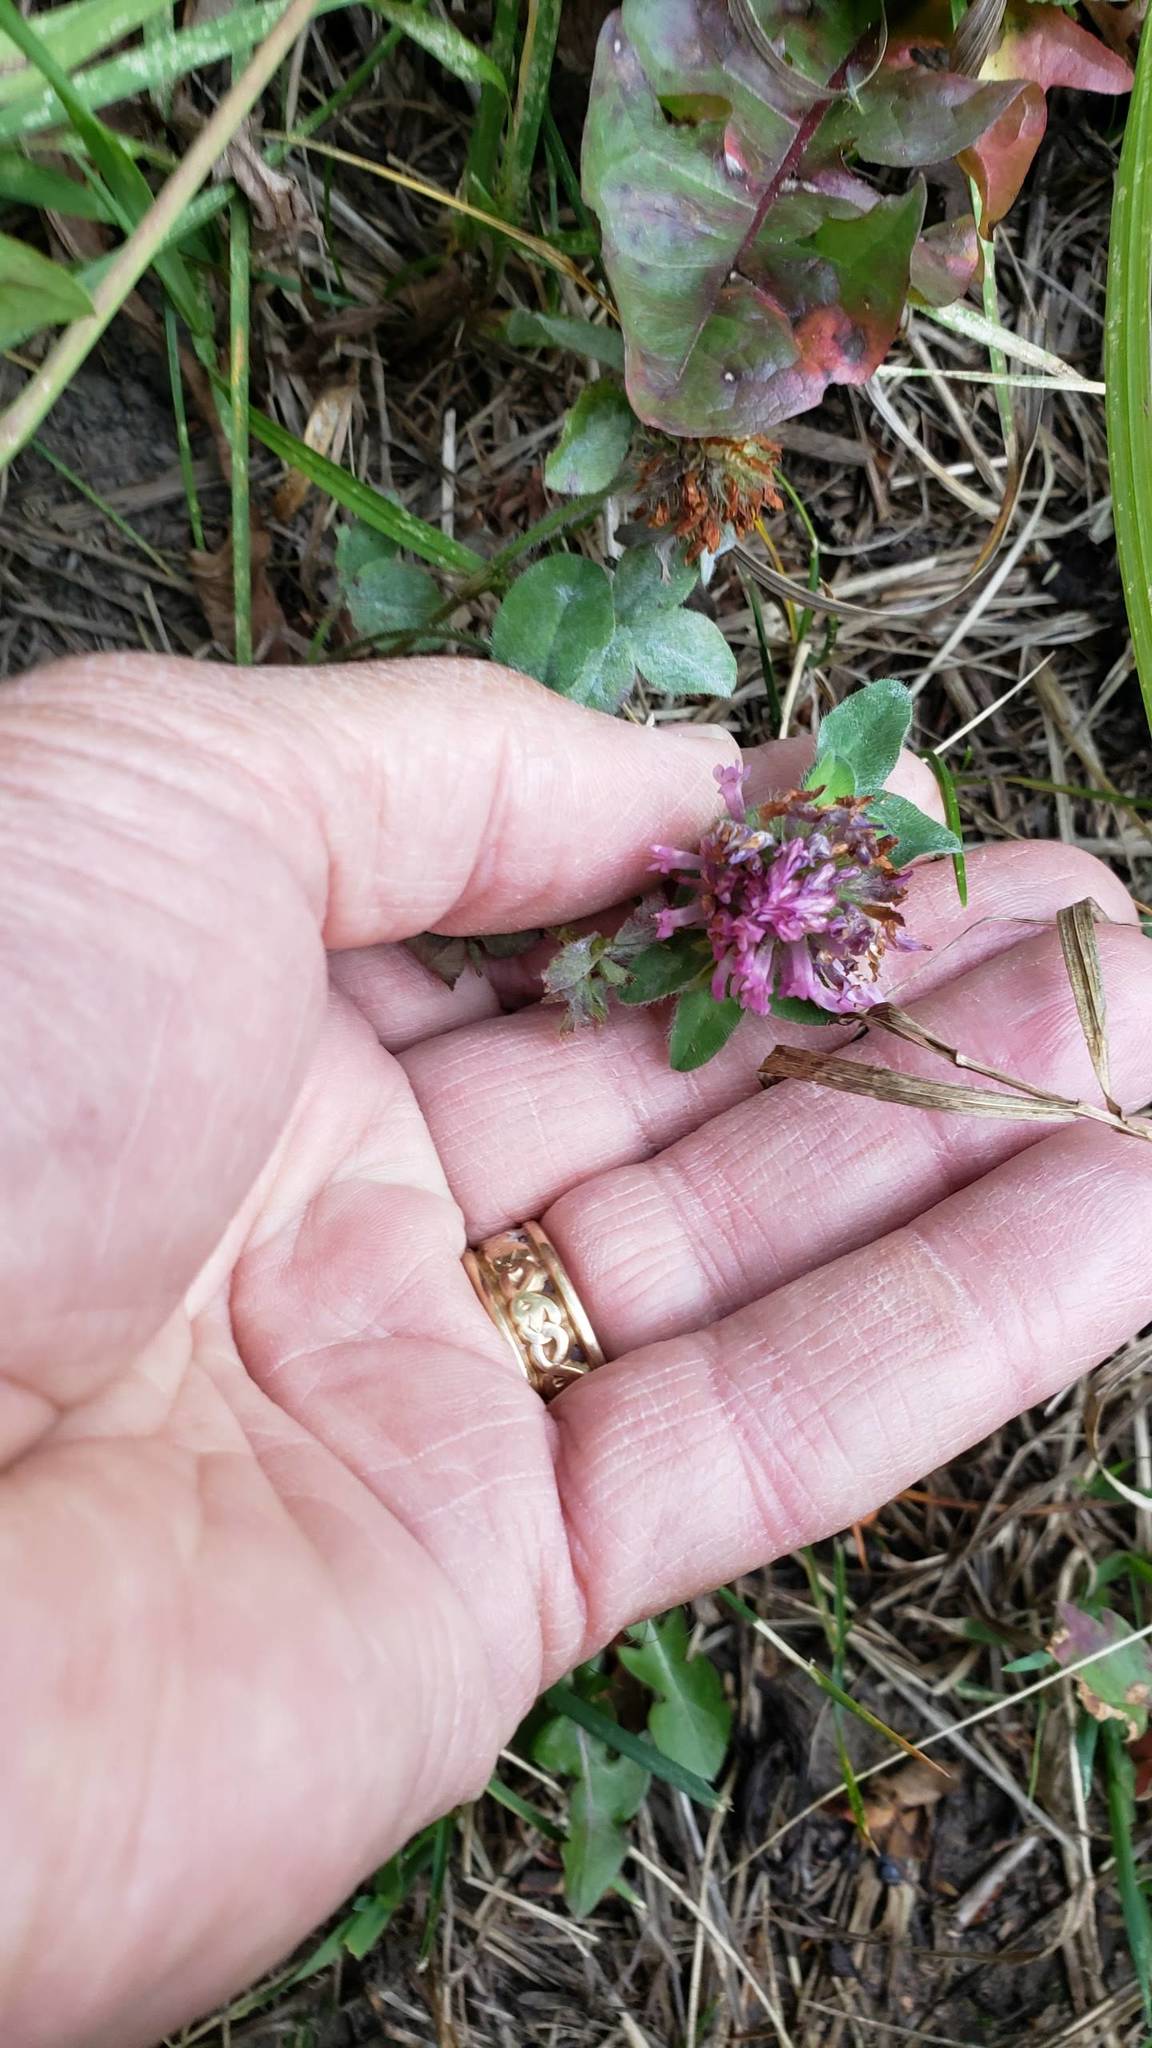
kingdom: Plantae
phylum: Tracheophyta
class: Magnoliopsida
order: Fabales
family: Fabaceae
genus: Trifolium
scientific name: Trifolium pratense
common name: Red clover
